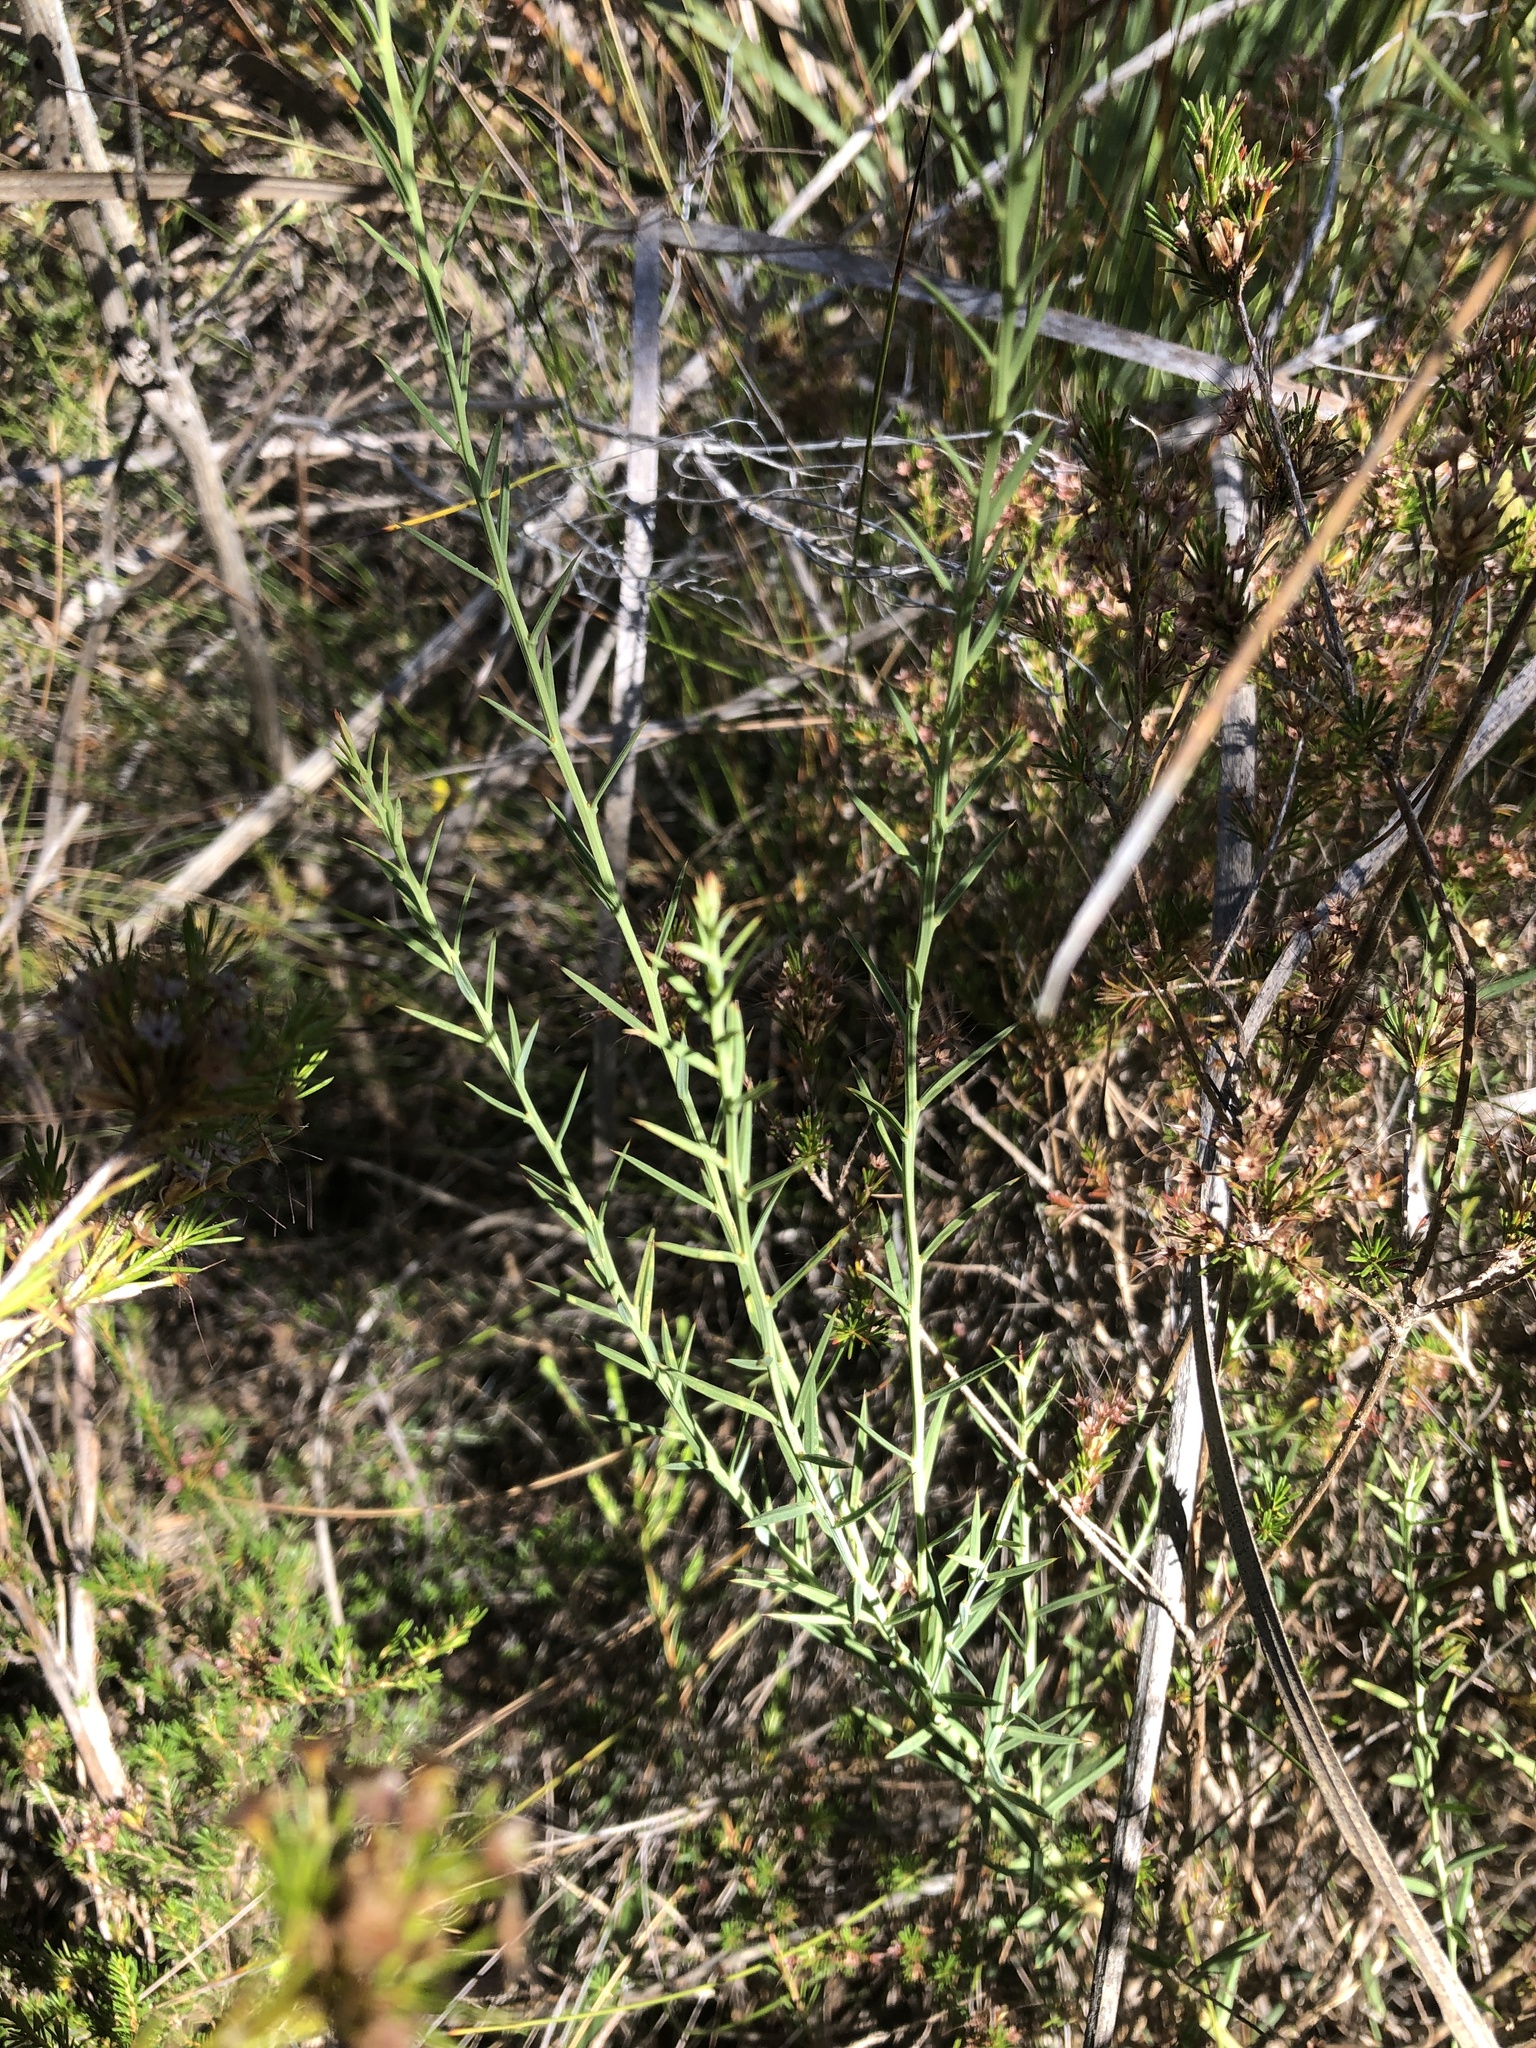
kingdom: Plantae
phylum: Tracheophyta
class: Magnoliopsida
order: Fabales
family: Fabaceae
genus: Daviesia
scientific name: Daviesia ulicifolia
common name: Gorse bitter-pea
